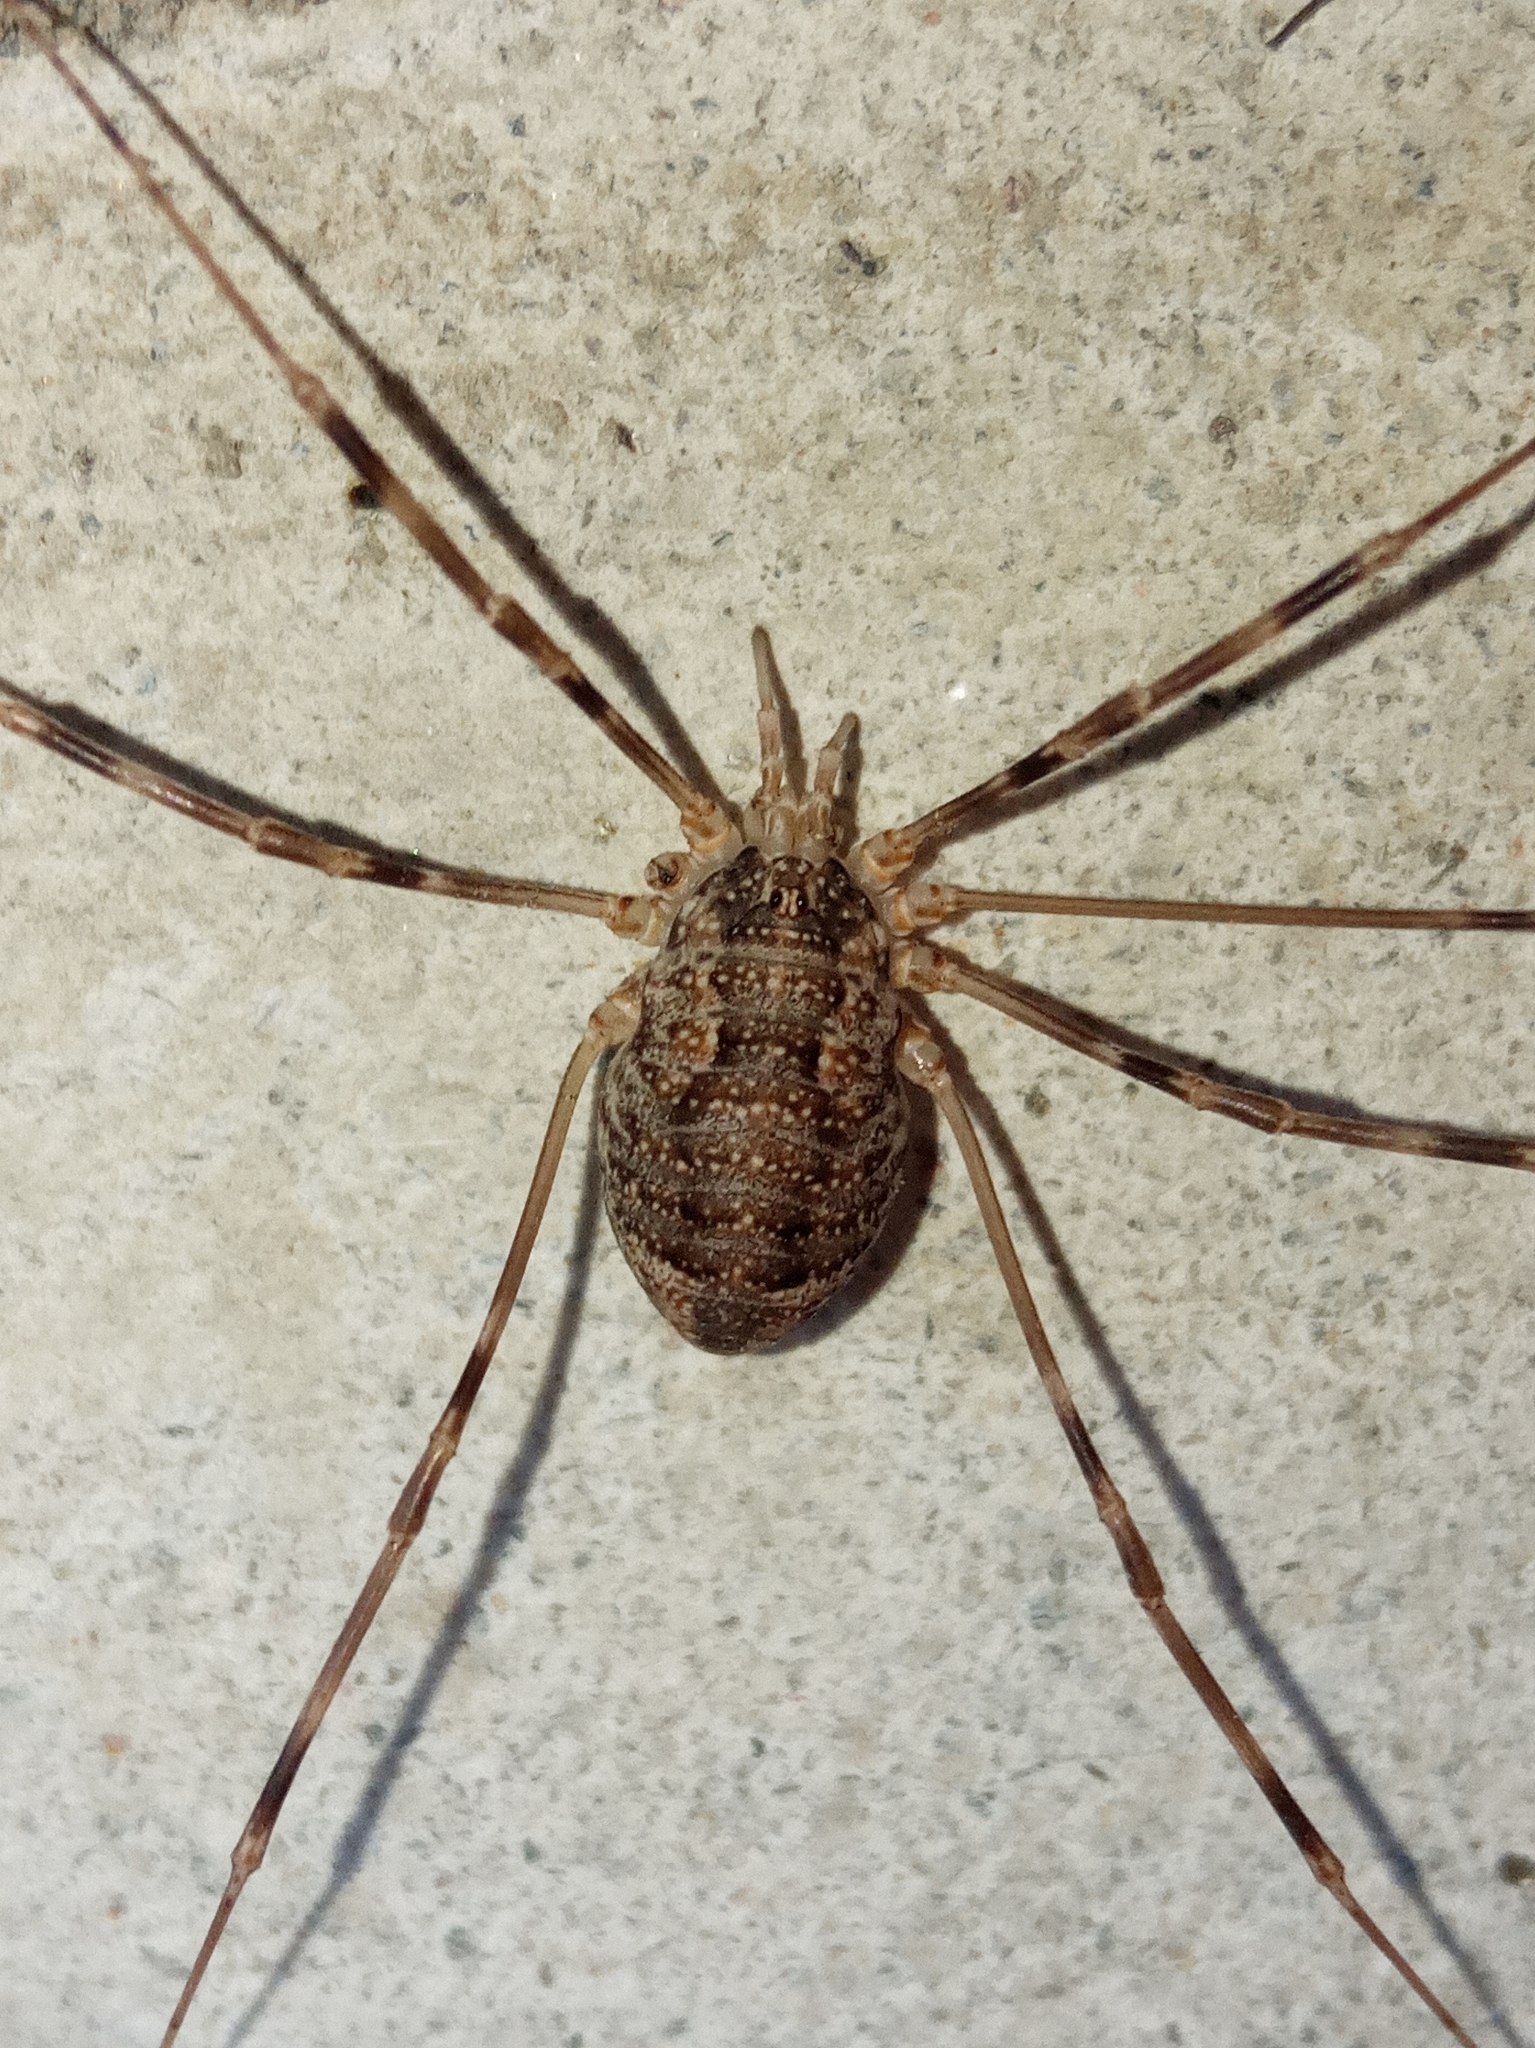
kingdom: Animalia
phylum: Arthropoda
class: Arachnida
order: Opiliones
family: Phalangiidae
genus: Opilio
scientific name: Opilio parietinus
